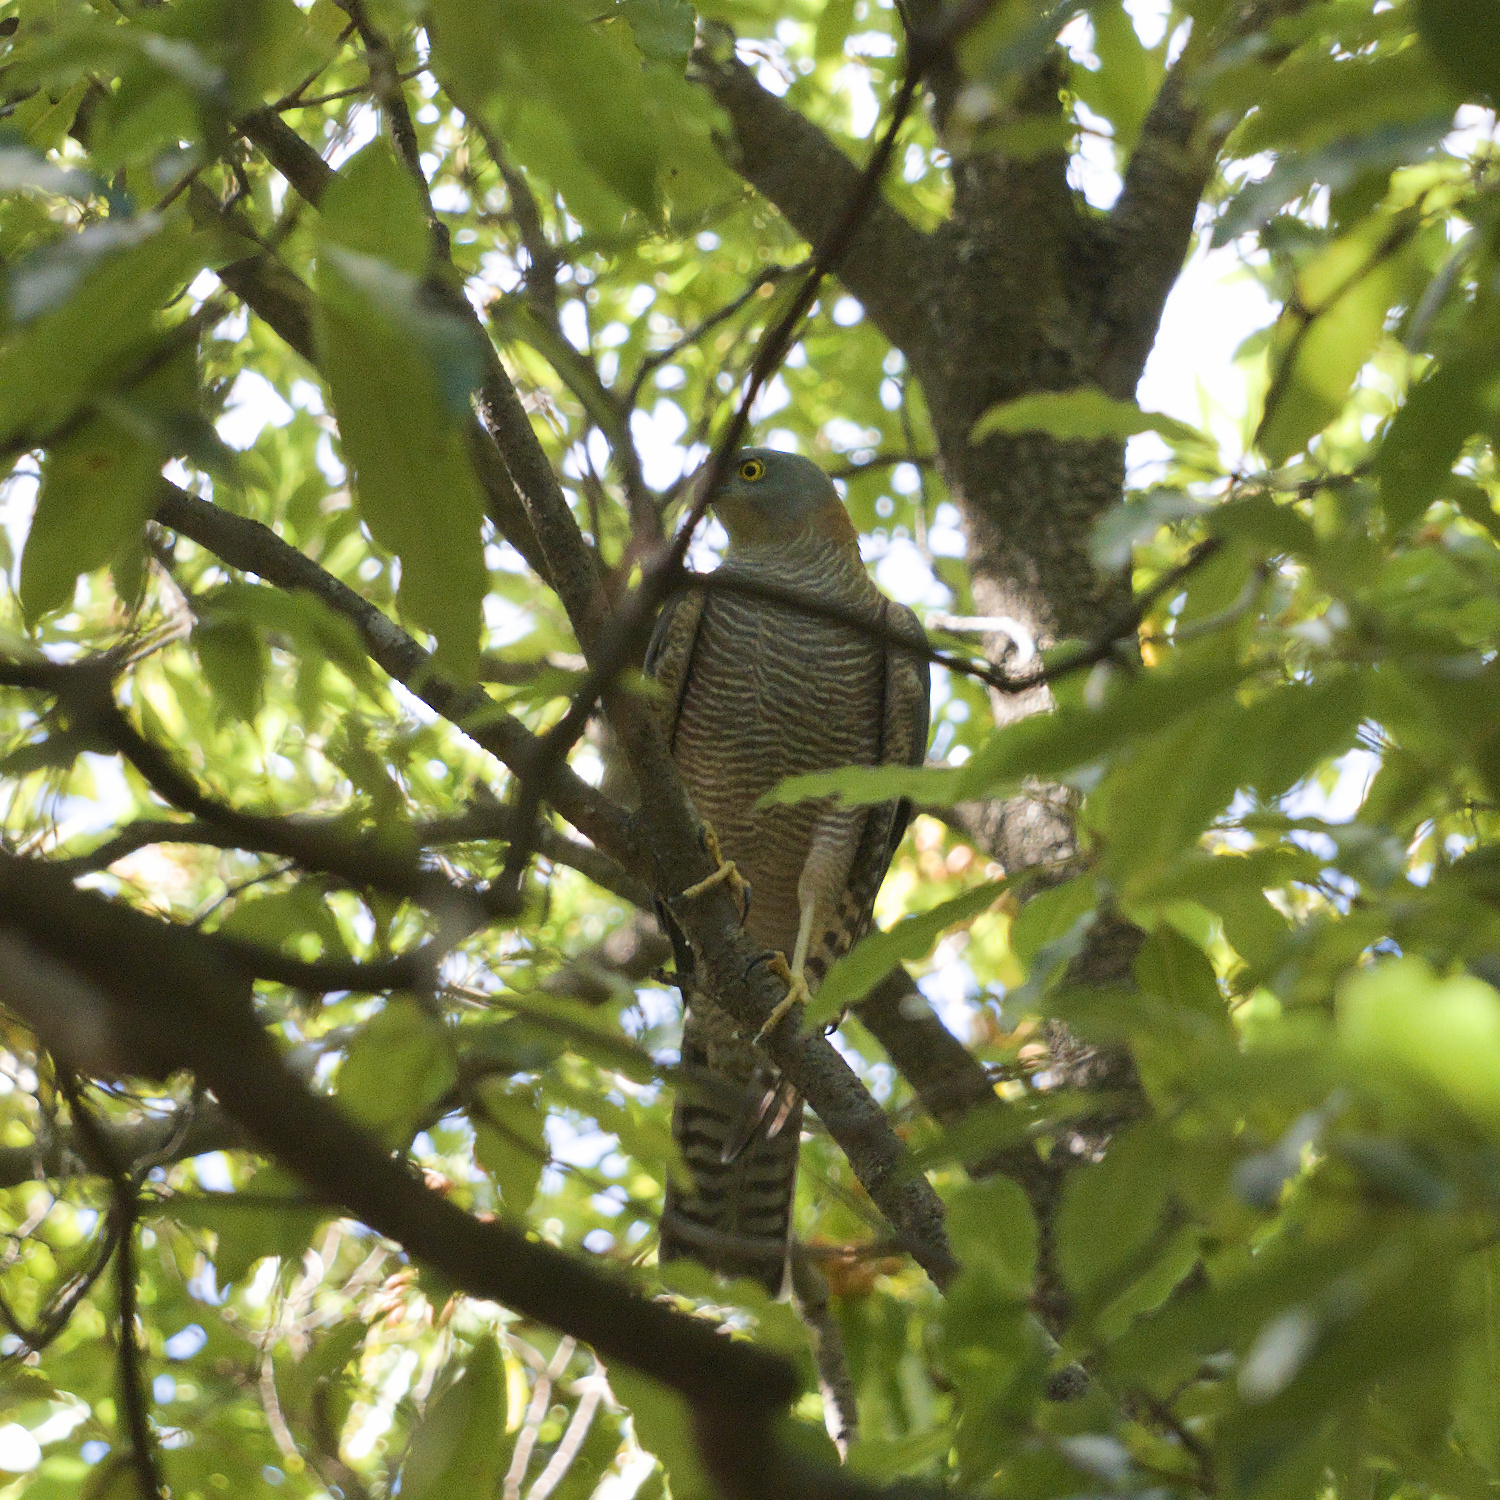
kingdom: Animalia
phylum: Chordata
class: Aves
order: Accipitriformes
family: Accipitridae
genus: Accipiter
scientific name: Accipiter cirrocephalus
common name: Collared sparrowhawk
